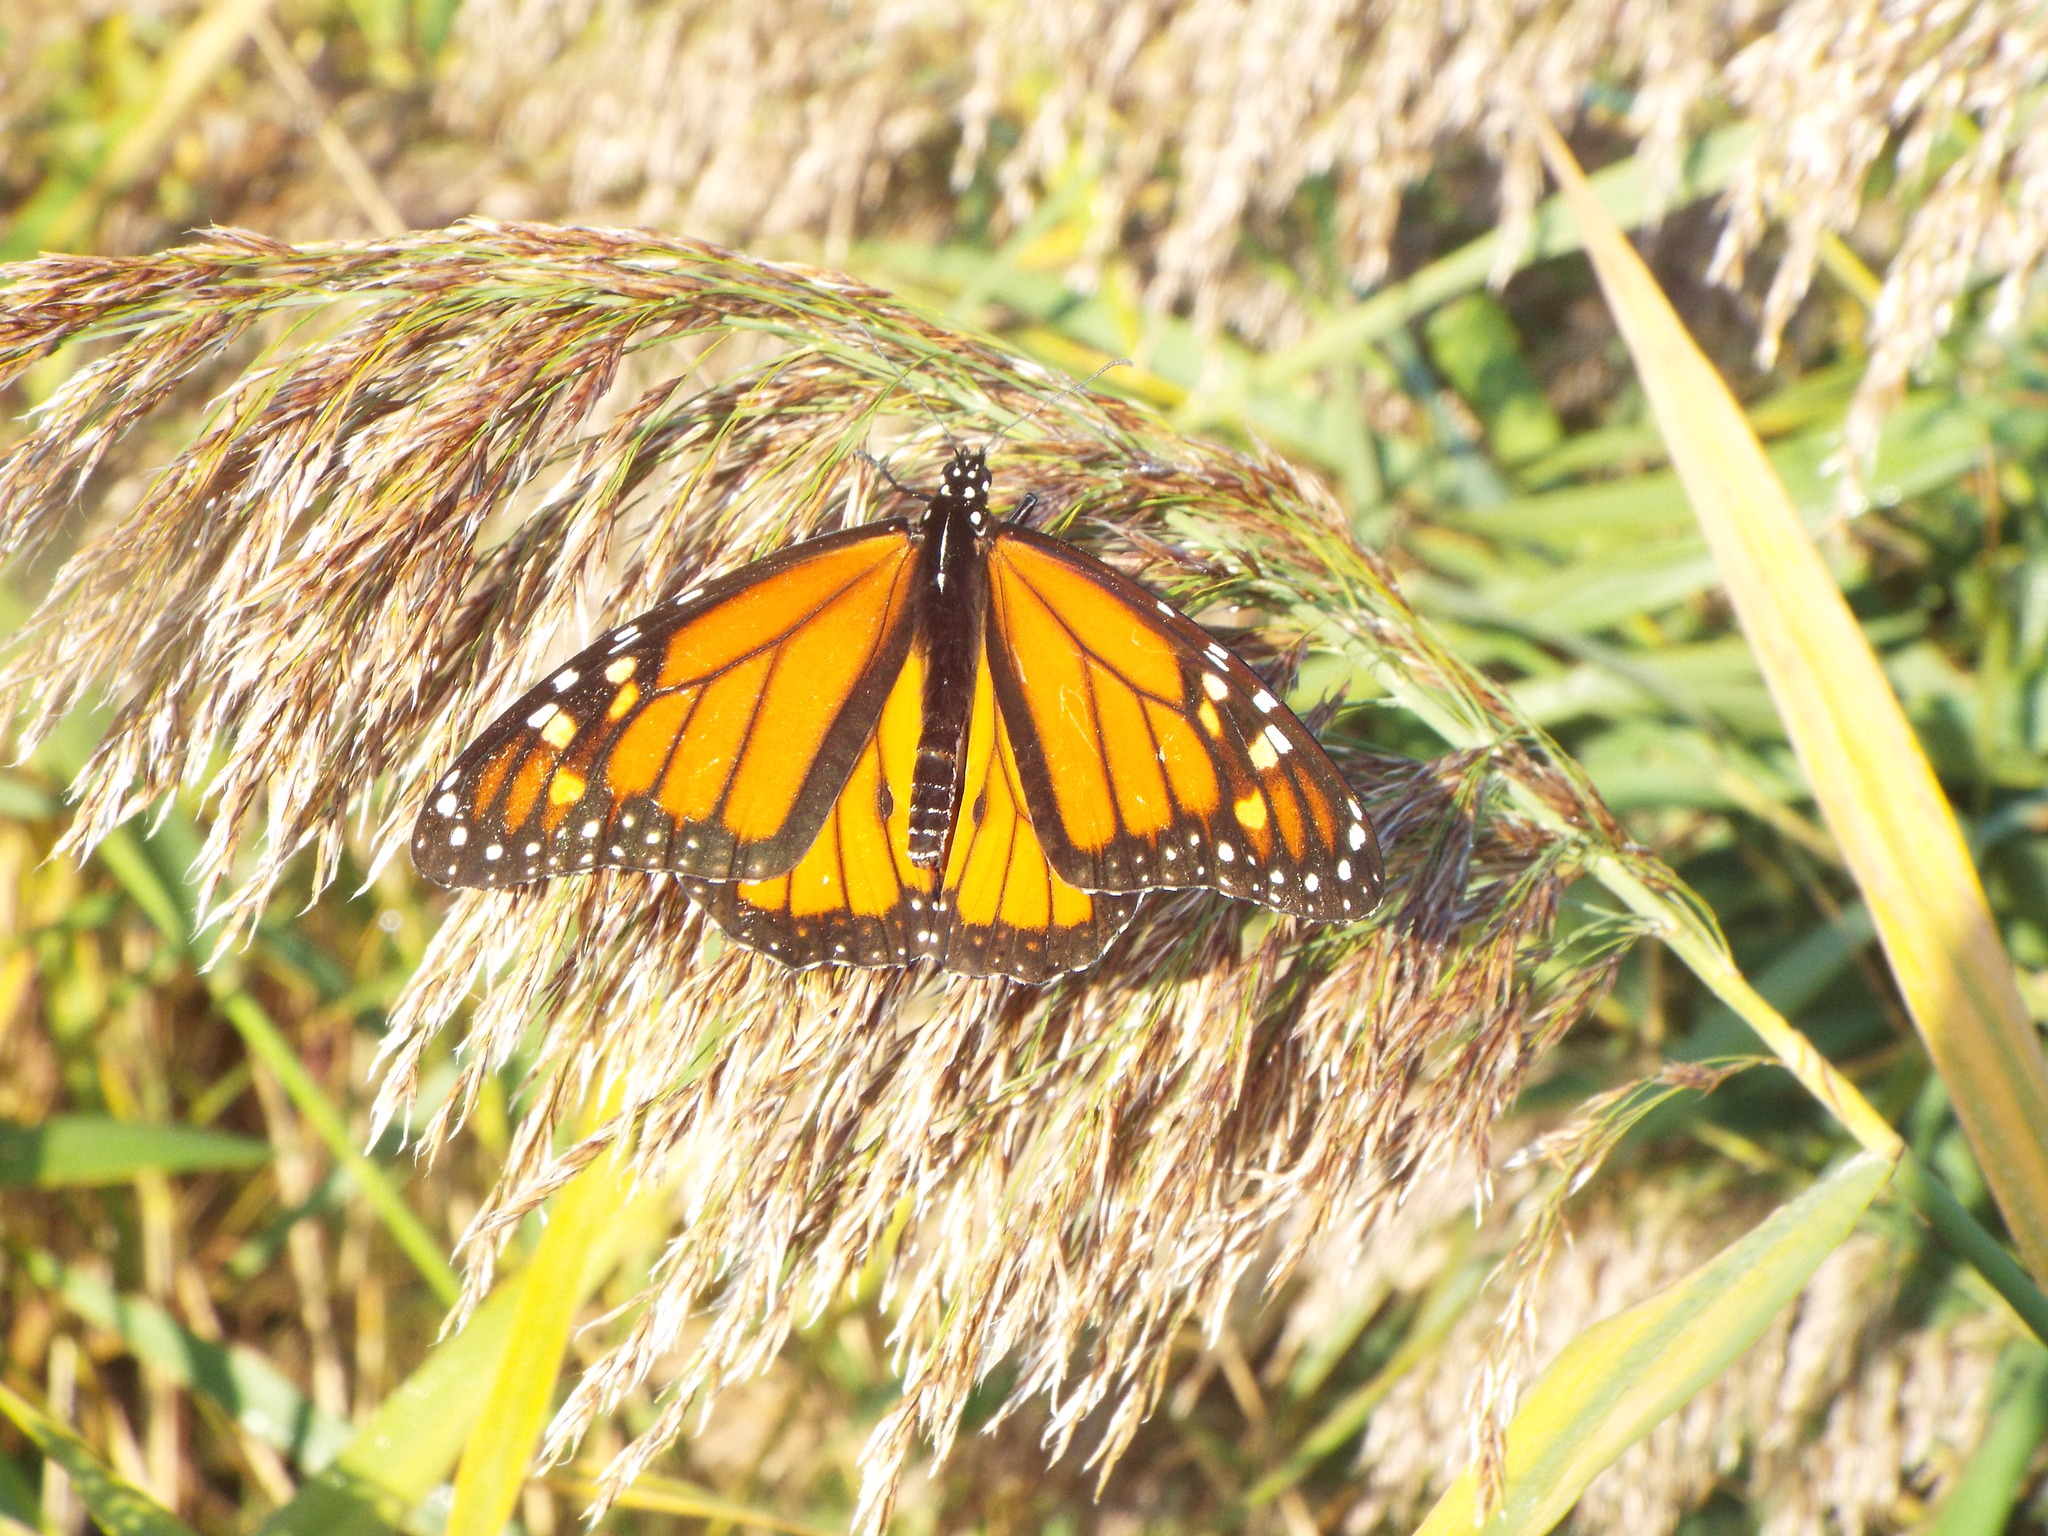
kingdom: Animalia
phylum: Arthropoda
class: Insecta
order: Lepidoptera
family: Nymphalidae
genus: Danaus
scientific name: Danaus plexippus
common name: Monarch
